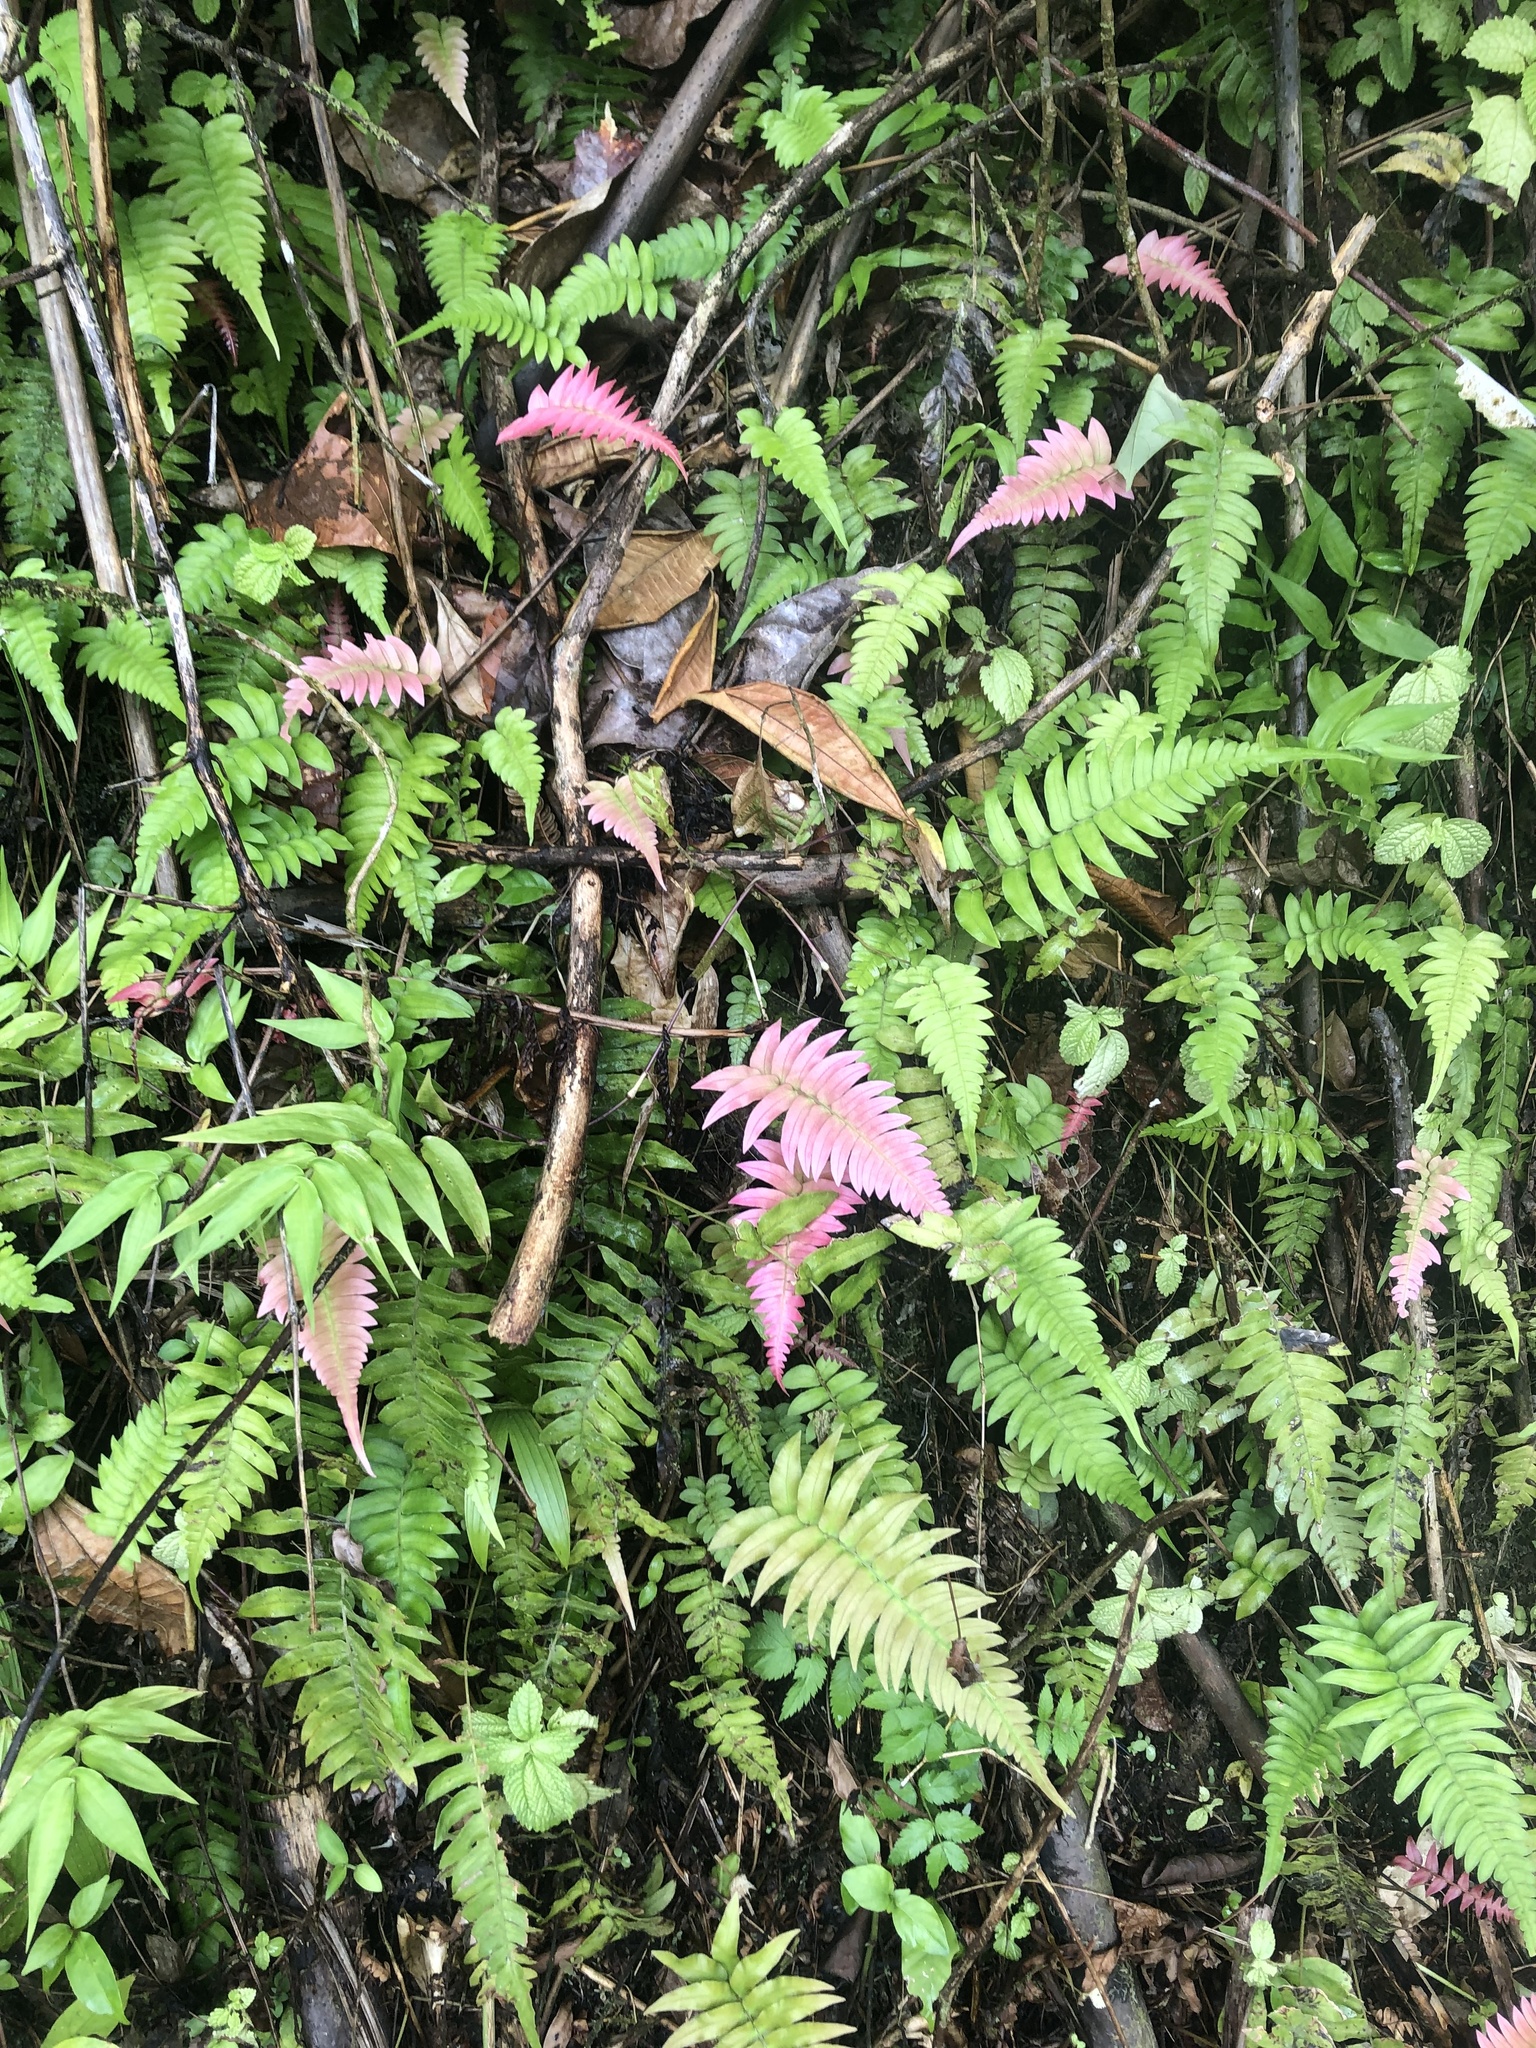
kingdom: Plantae
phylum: Tracheophyta
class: Polypodiopsida
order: Polypodiales
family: Blechnaceae
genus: Blechnum
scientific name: Blechnum occidentale
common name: Hammock fern
